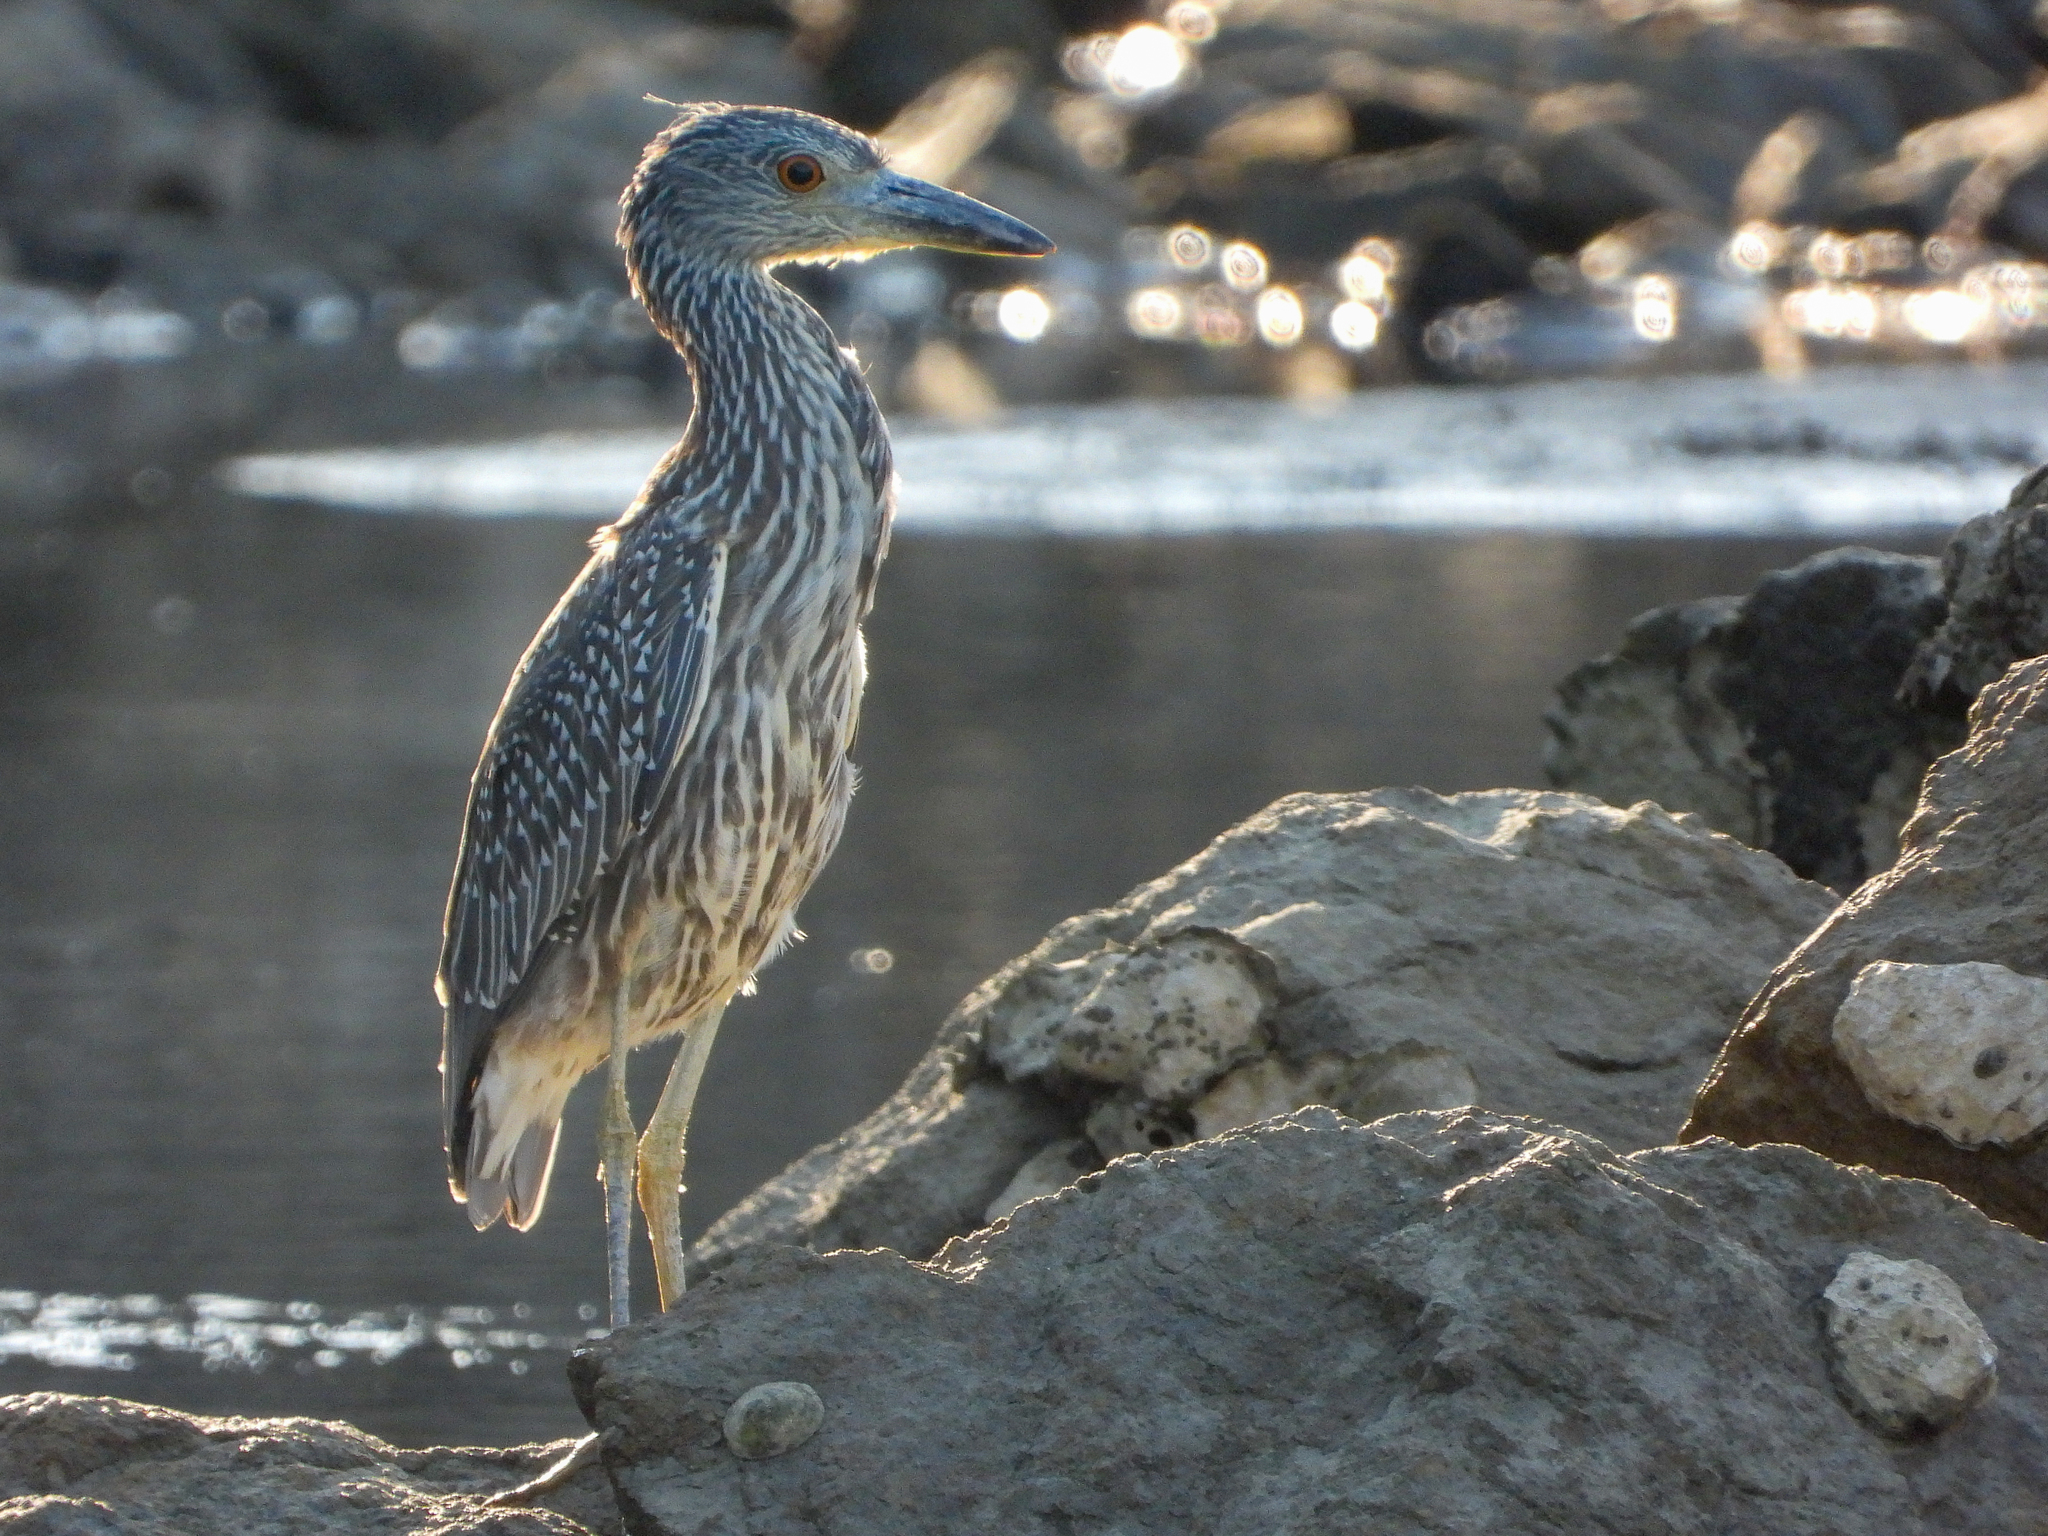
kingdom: Animalia
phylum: Chordata
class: Aves
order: Pelecaniformes
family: Ardeidae
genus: Nyctanassa
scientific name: Nyctanassa violacea
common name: Yellow-crowned night heron
